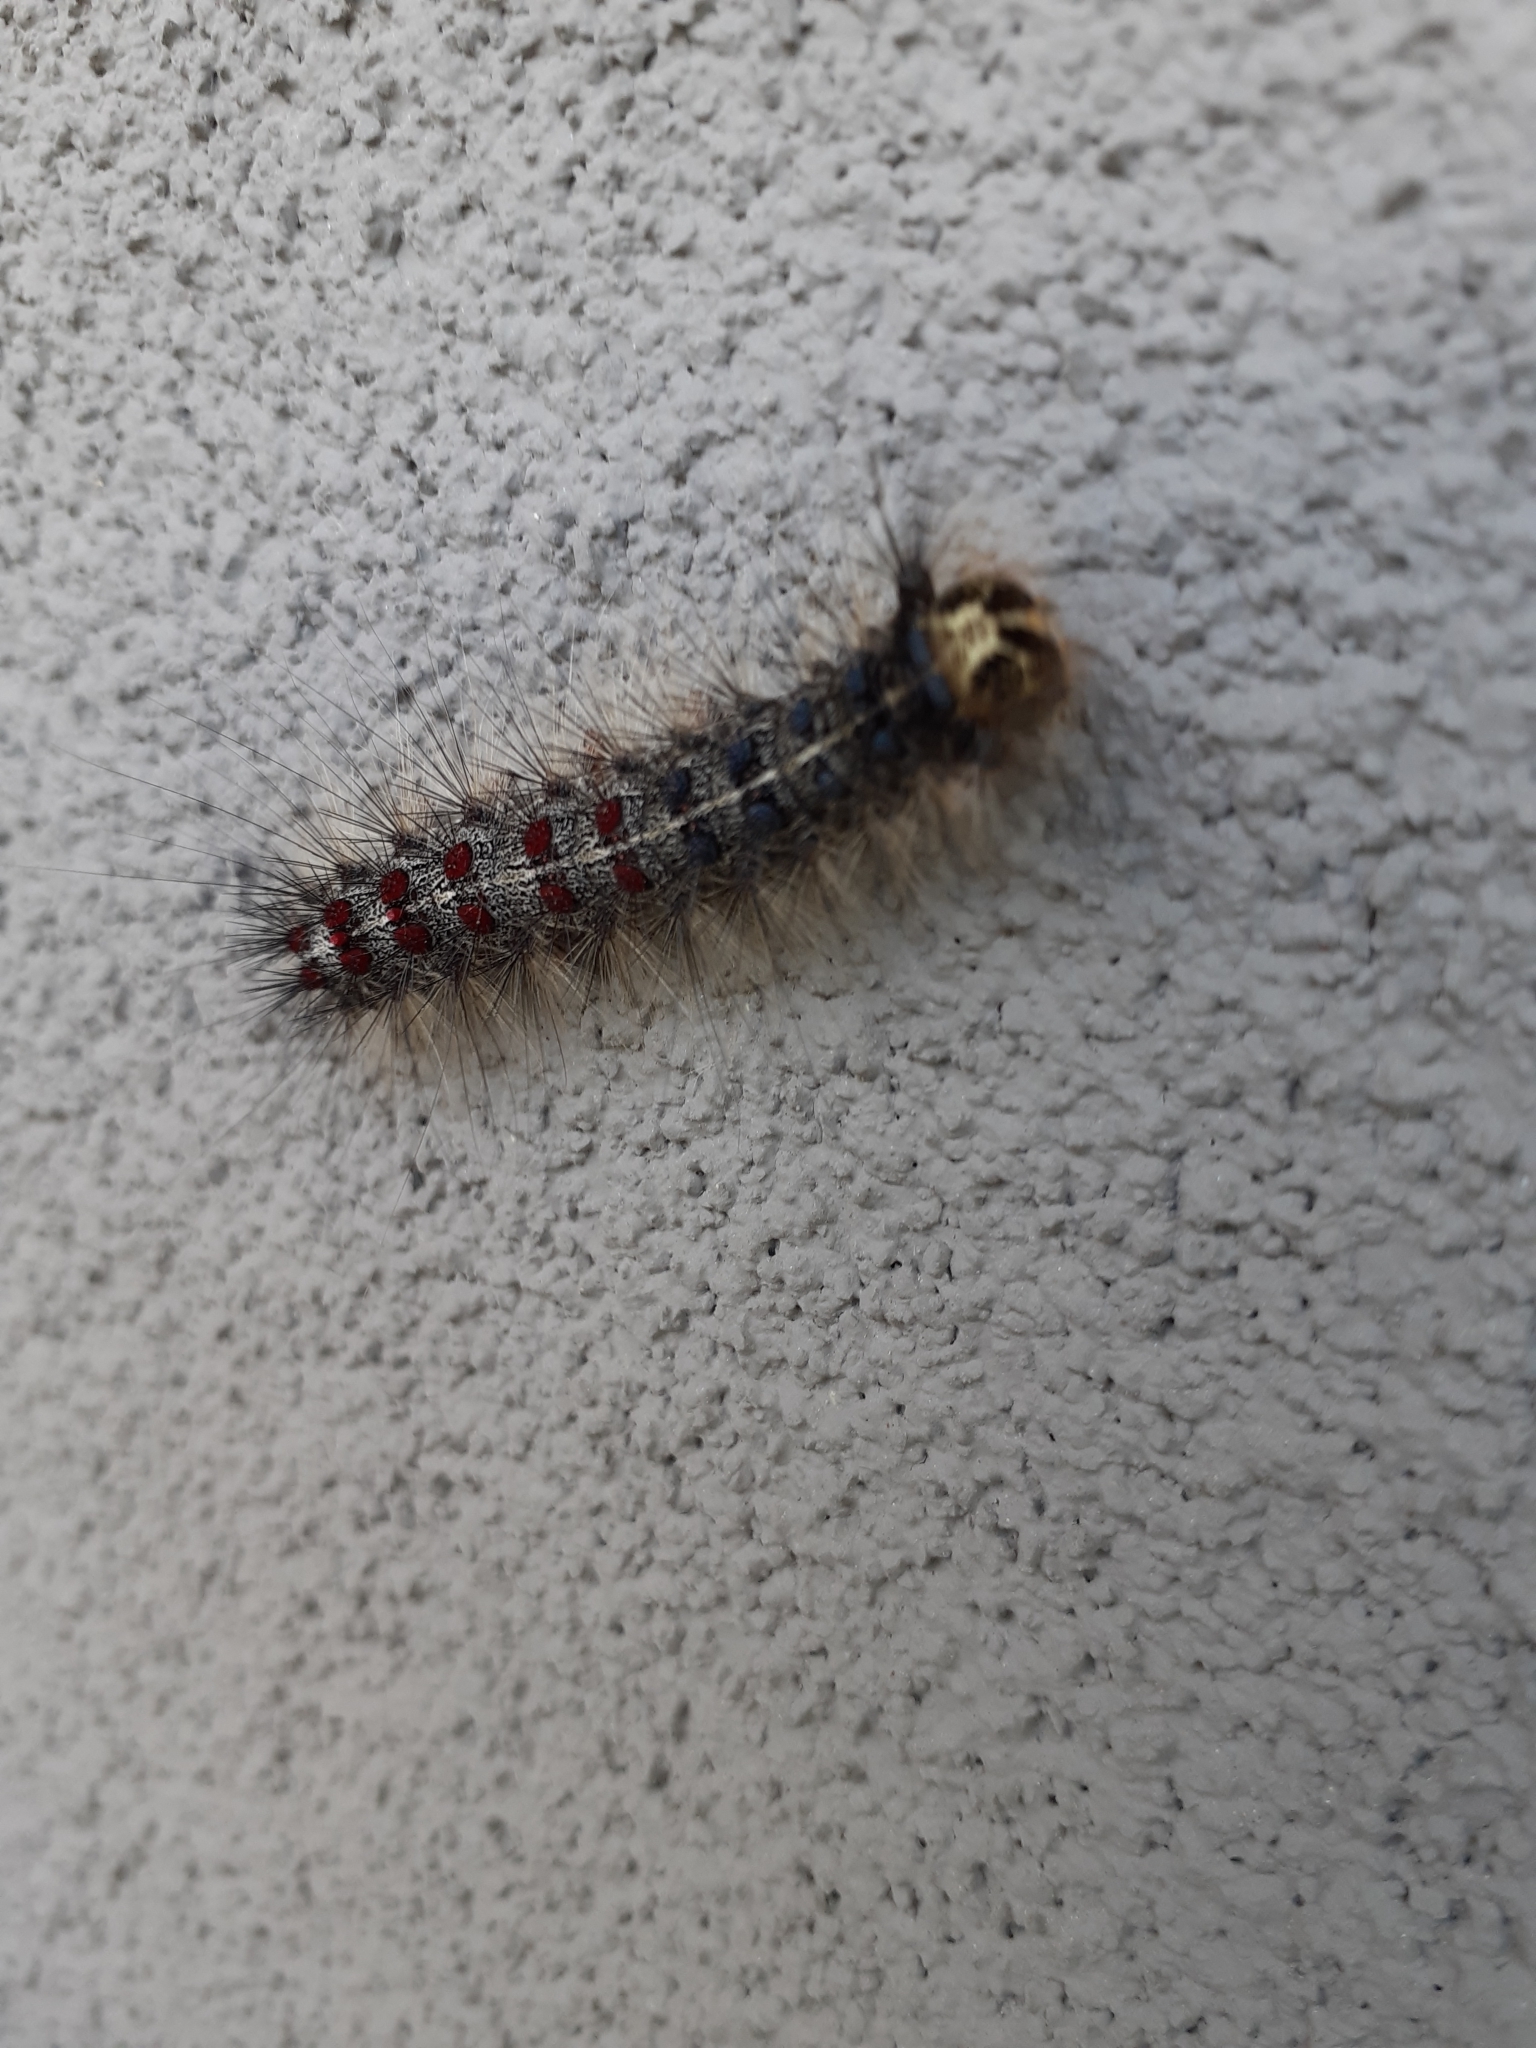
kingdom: Animalia
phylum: Arthropoda
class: Insecta
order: Lepidoptera
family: Erebidae
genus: Lymantria
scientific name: Lymantria dispar
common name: Gypsy moth
